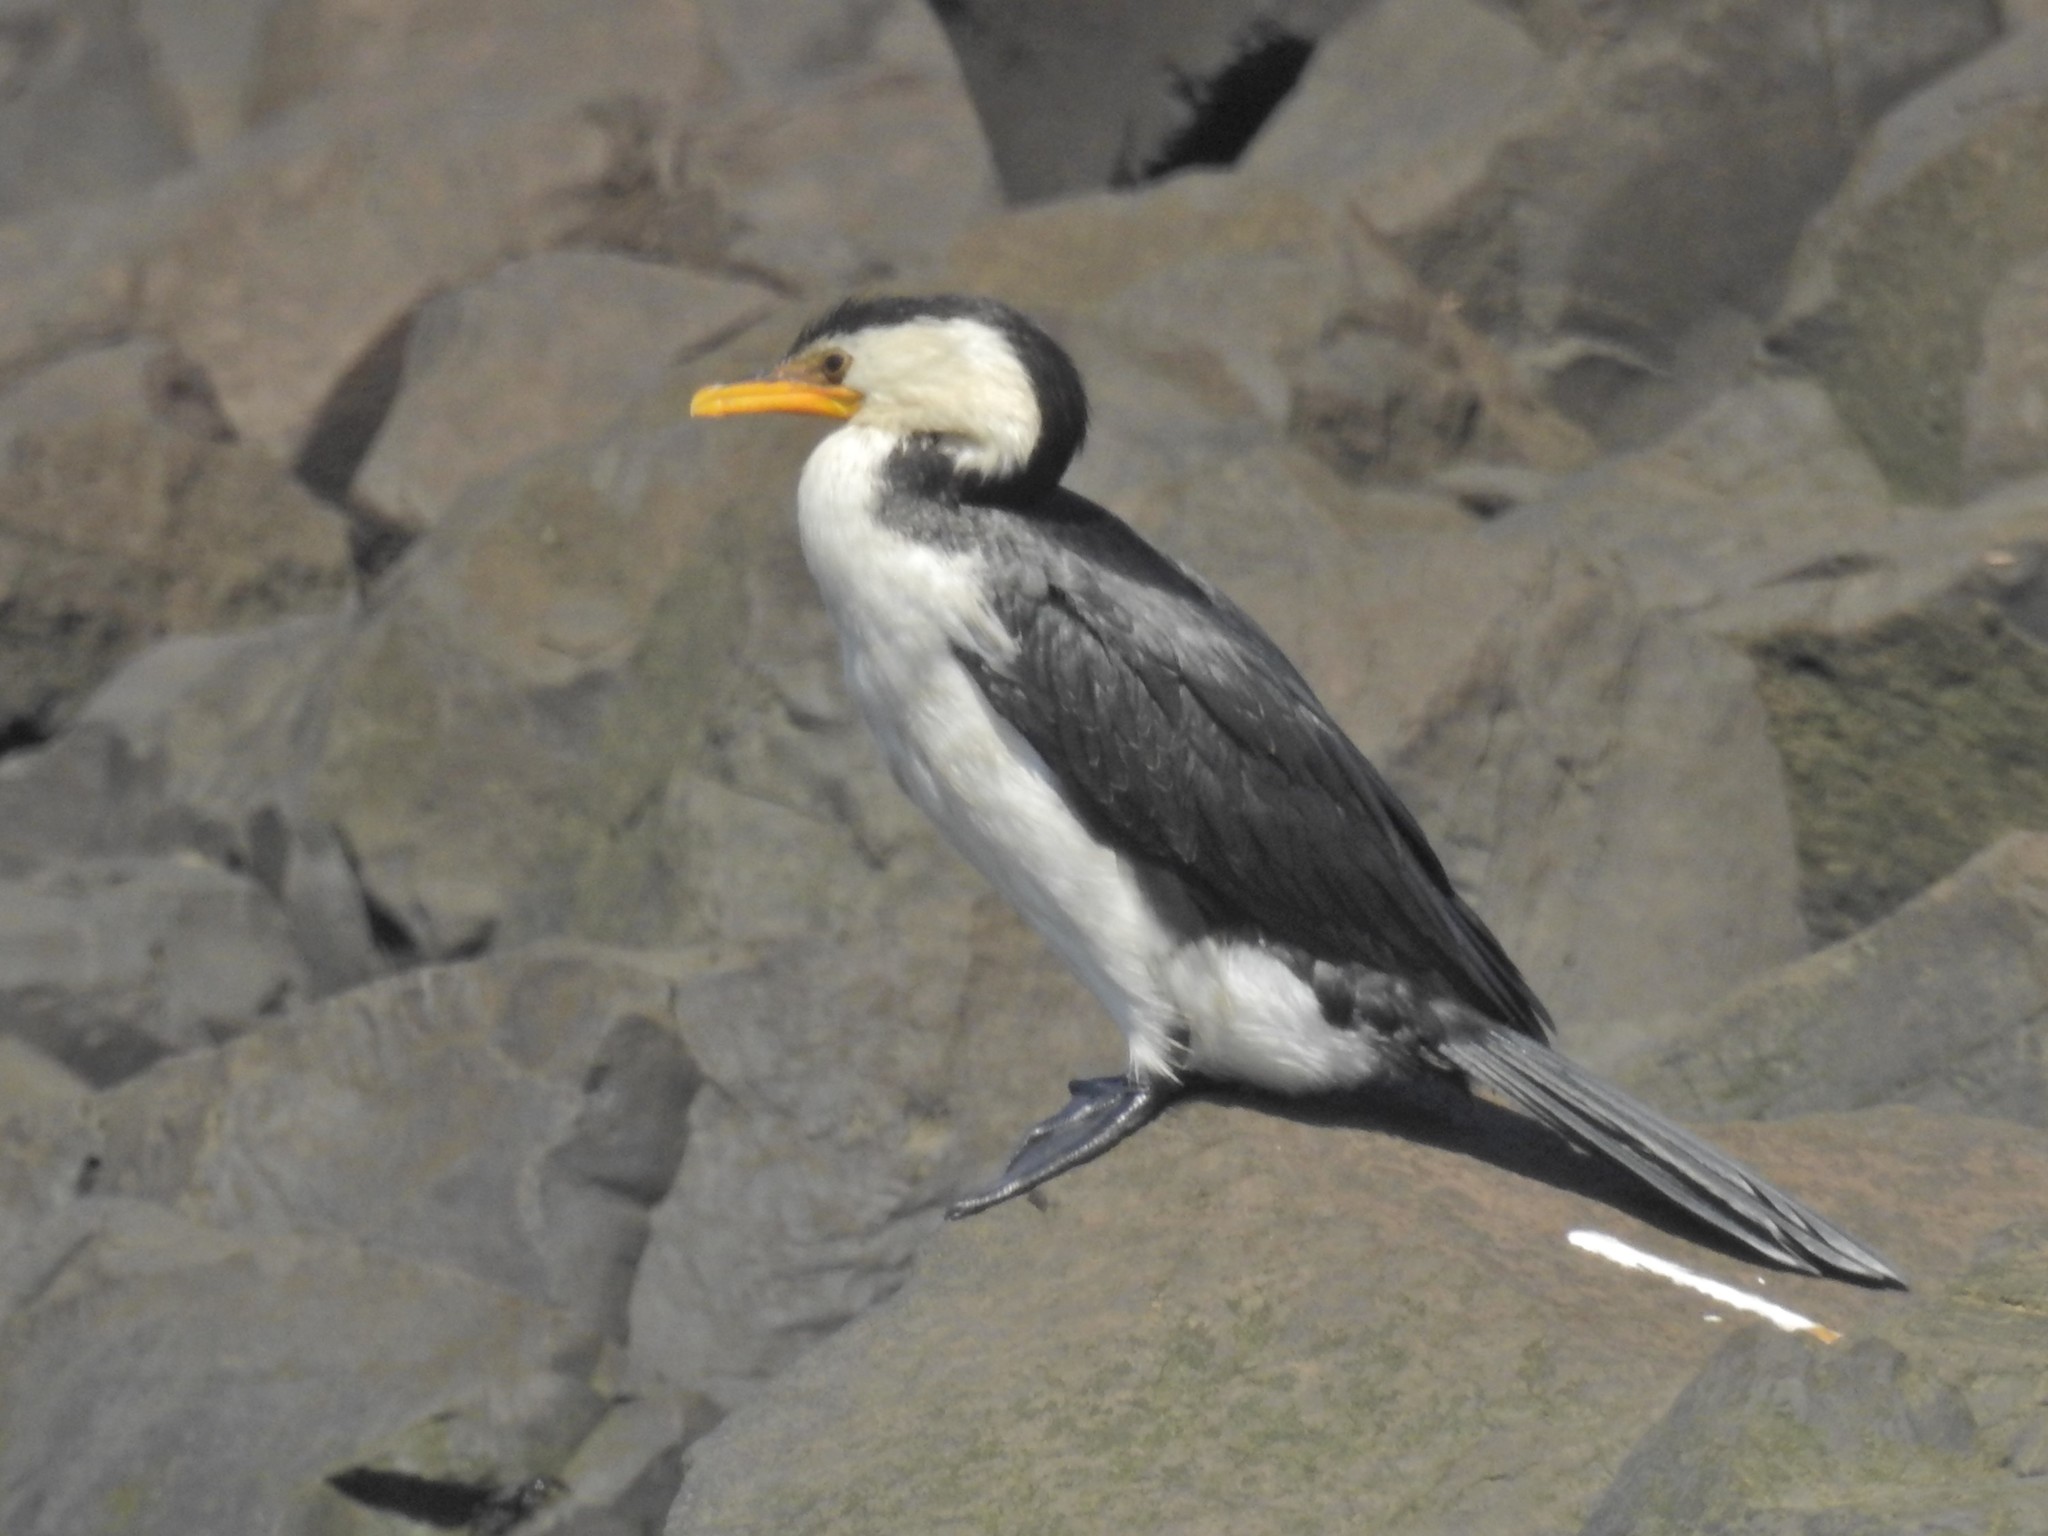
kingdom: Animalia
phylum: Chordata
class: Aves
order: Suliformes
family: Phalacrocoracidae
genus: Microcarbo
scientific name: Microcarbo melanoleucos
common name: Little pied cormorant
